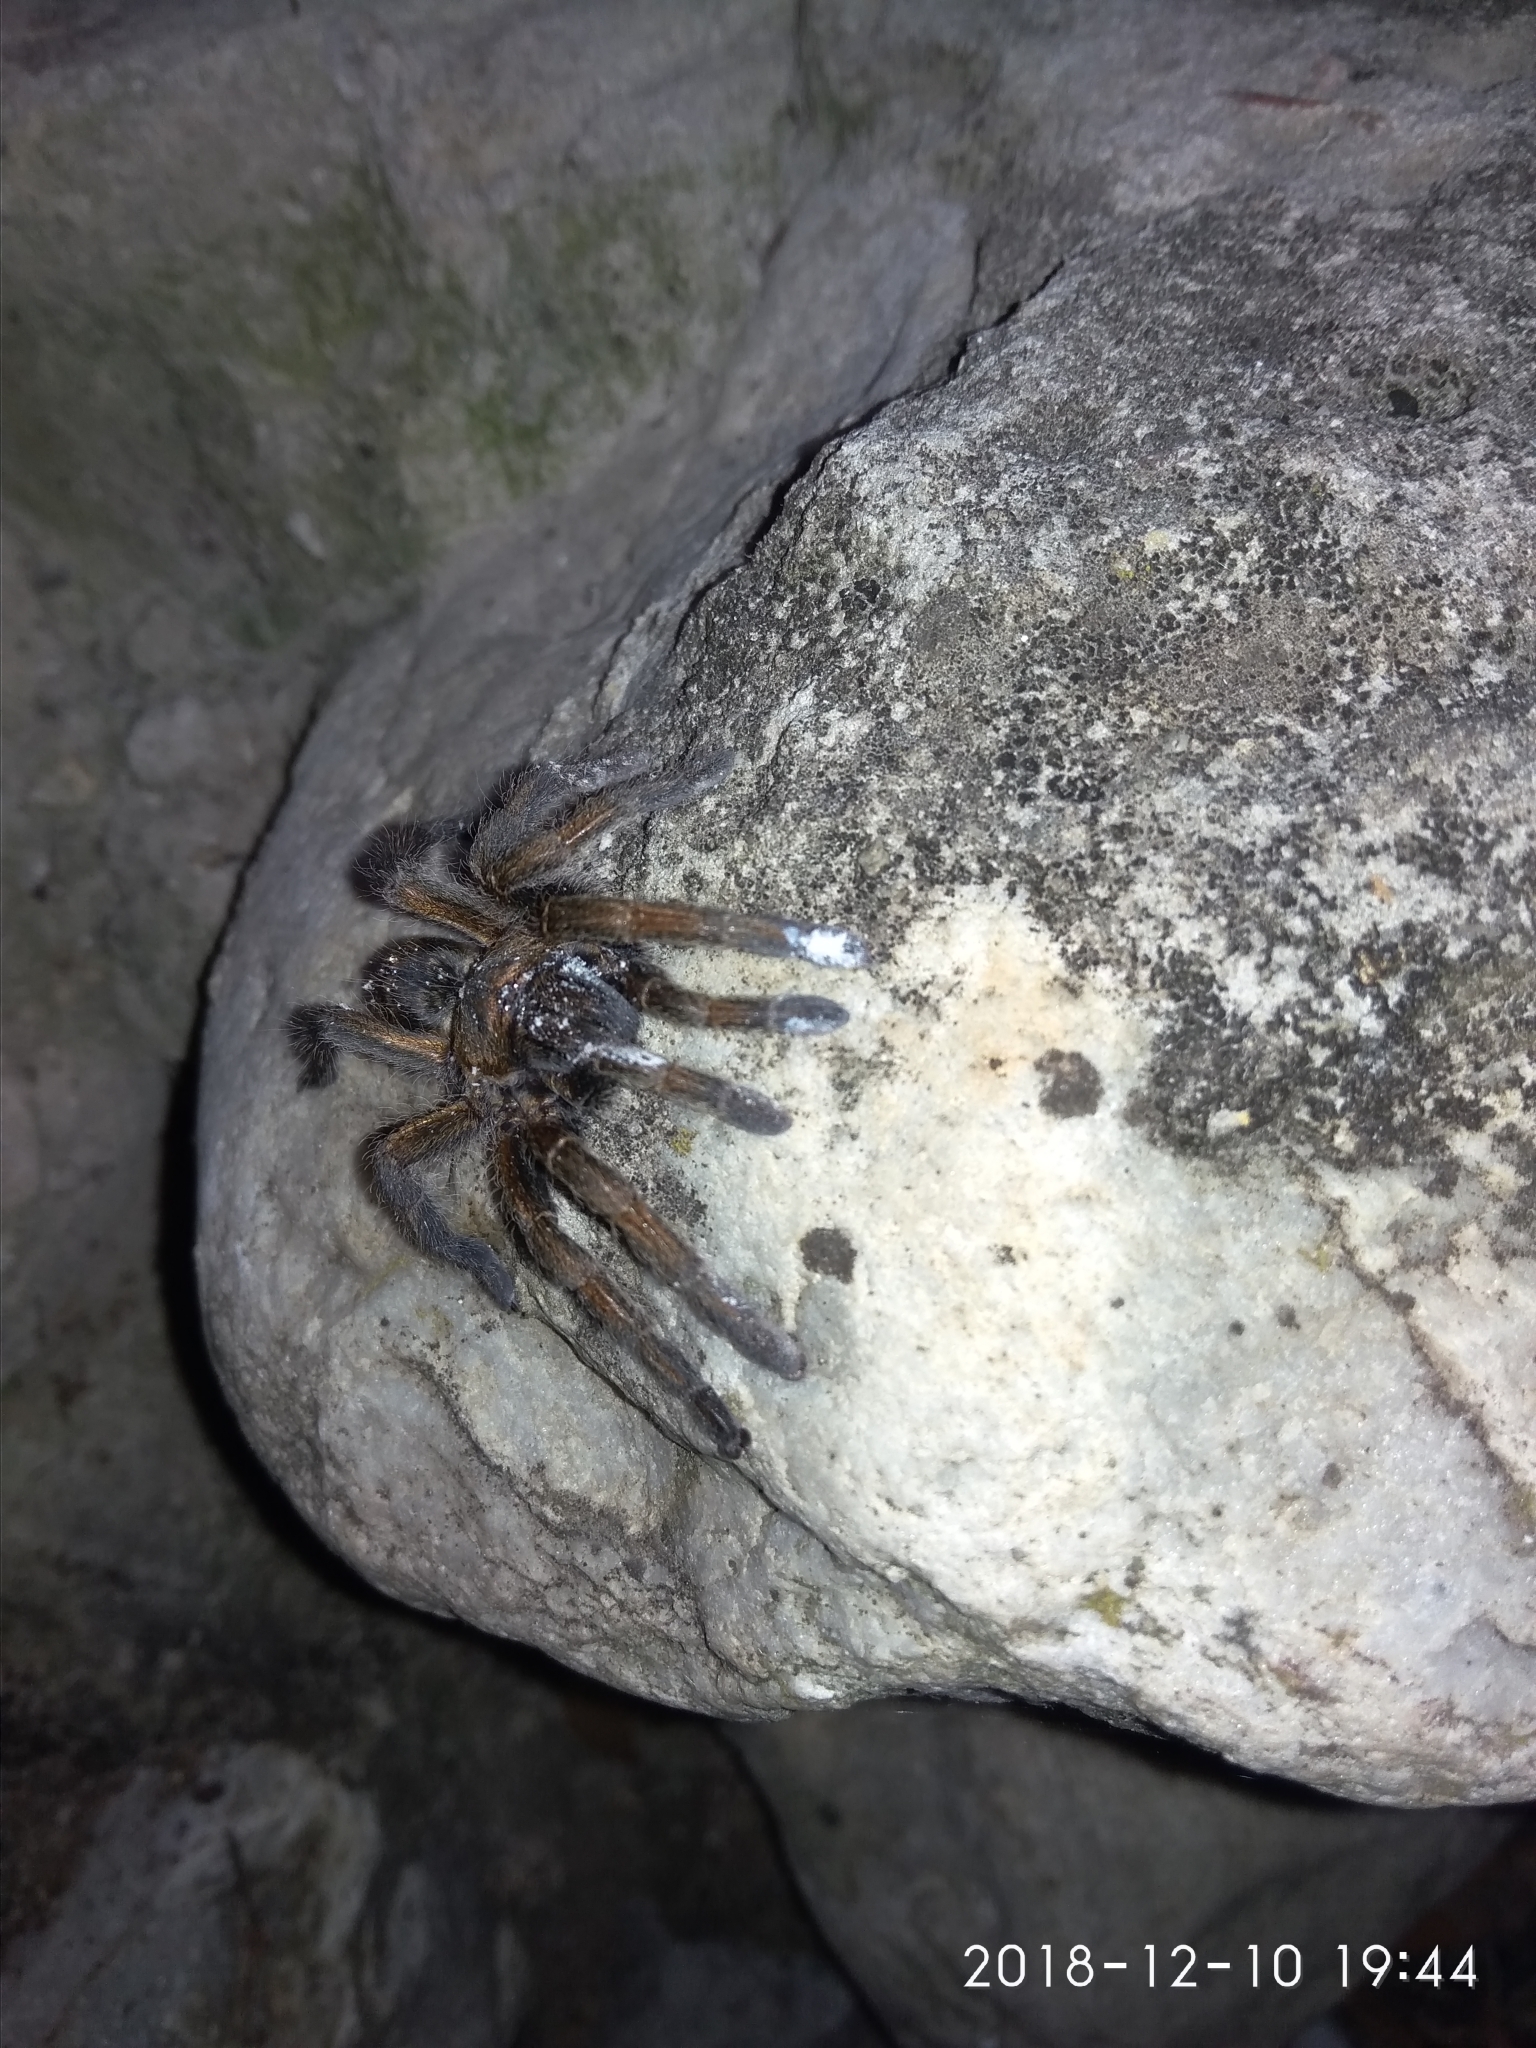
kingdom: Animalia
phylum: Arthropoda
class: Arachnida
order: Araneae
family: Theraphosidae
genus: Harpactira
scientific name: Harpactira cafreriana
